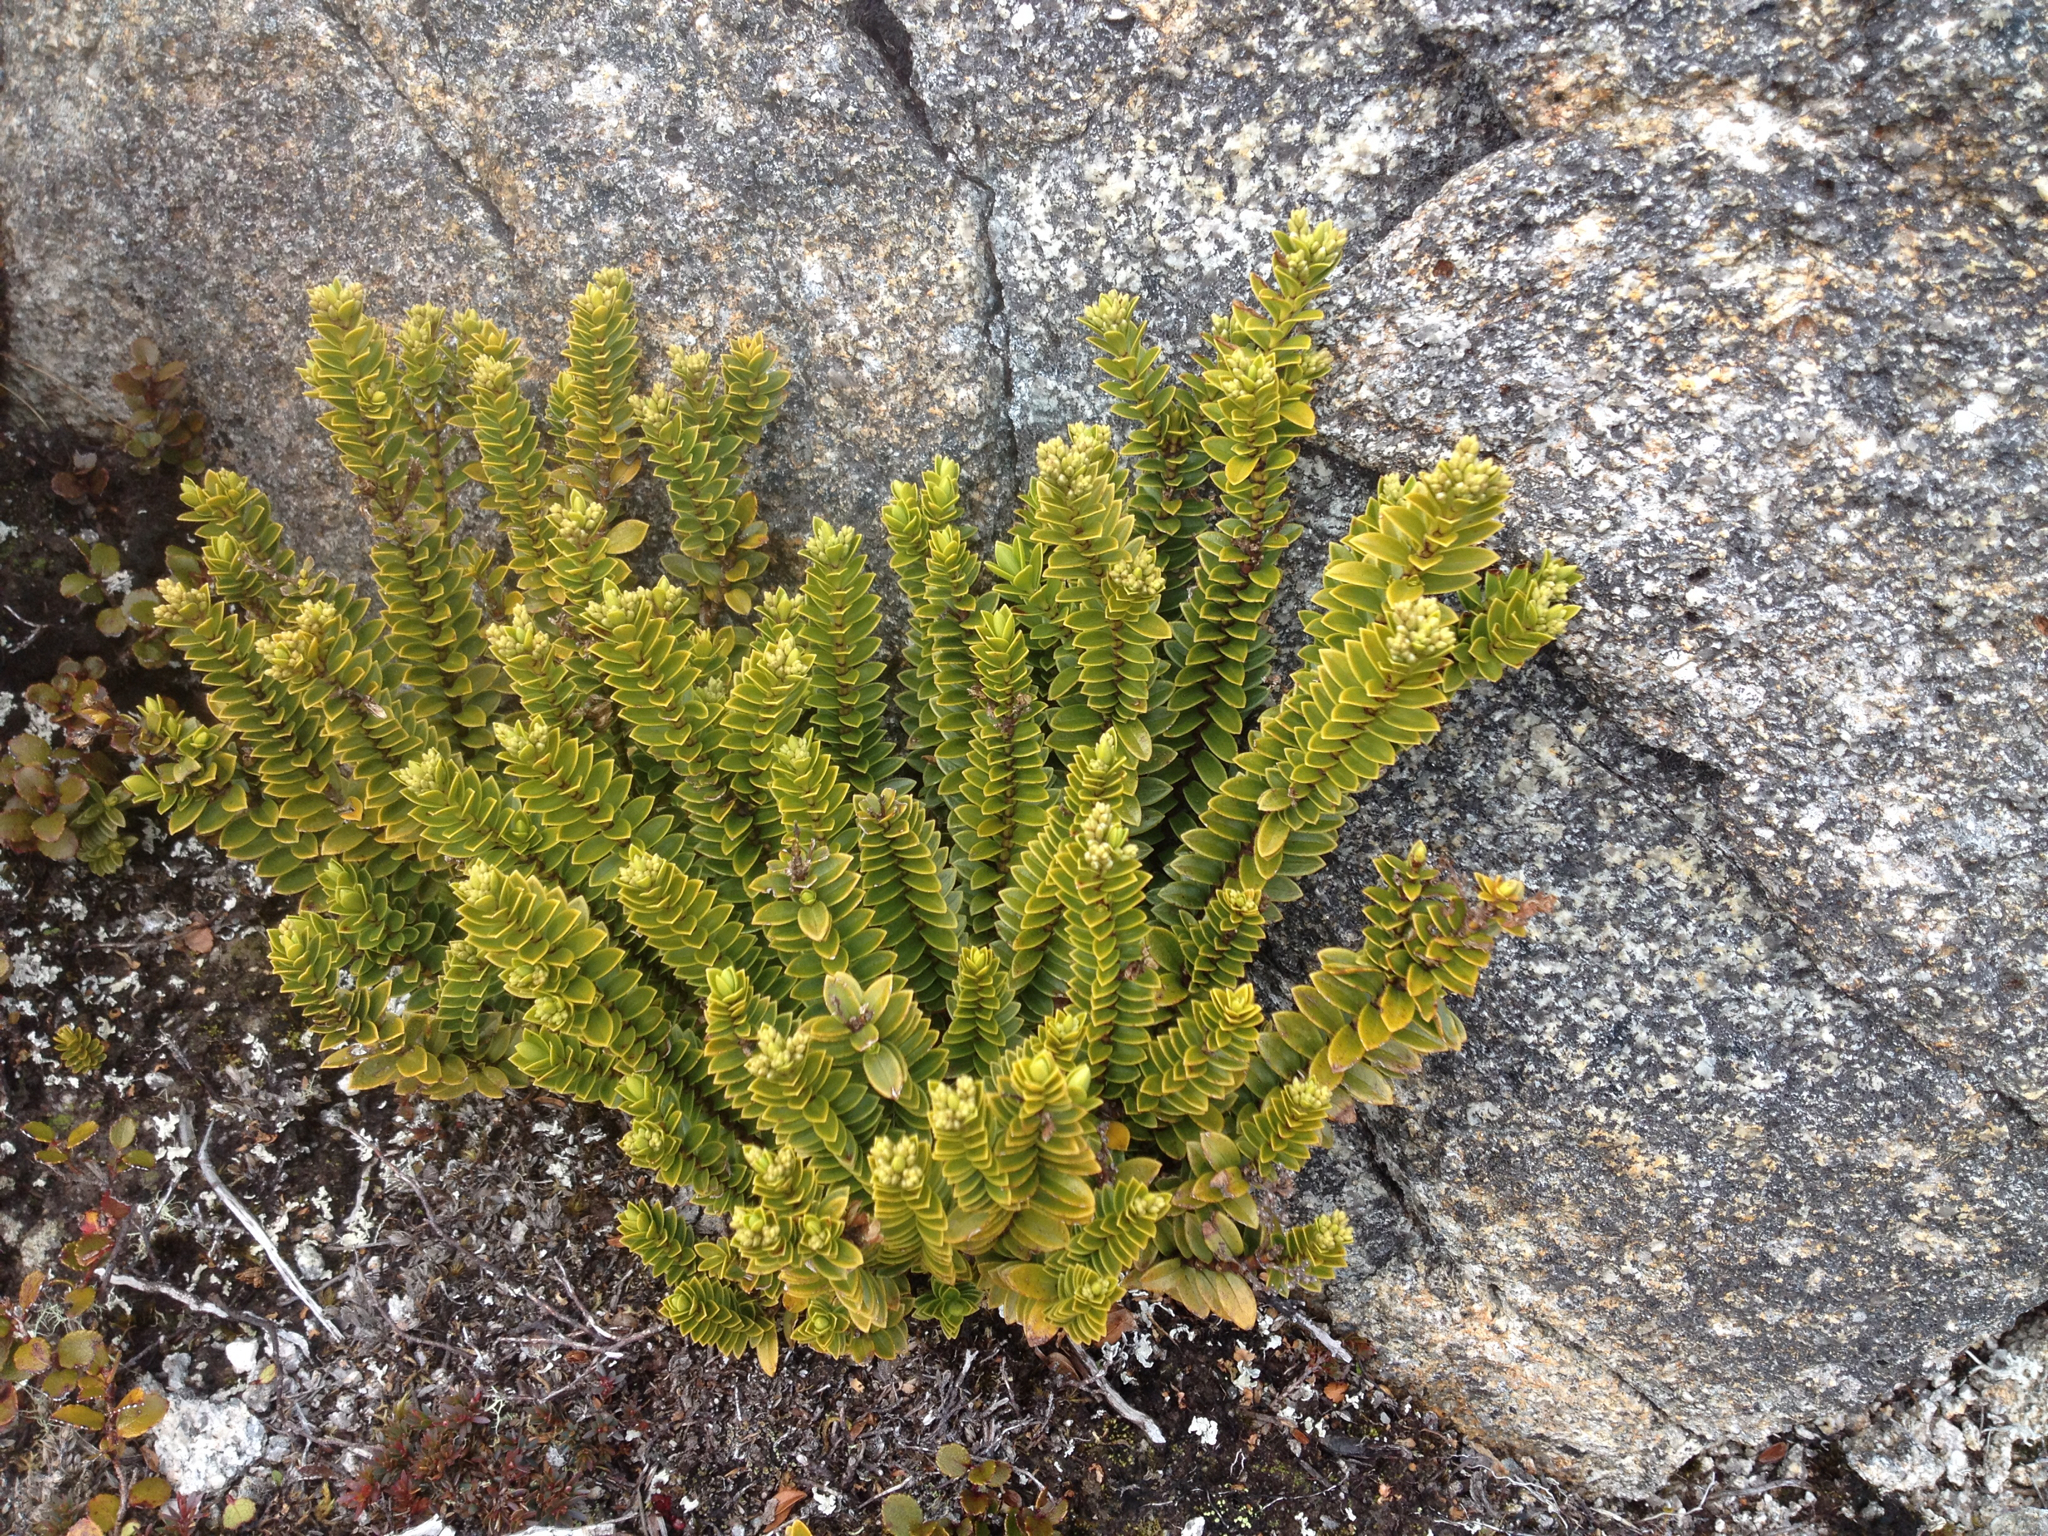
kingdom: Plantae
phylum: Tracheophyta
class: Magnoliopsida
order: Lamiales
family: Plantaginaceae
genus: Veronica
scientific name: Veronica odora
